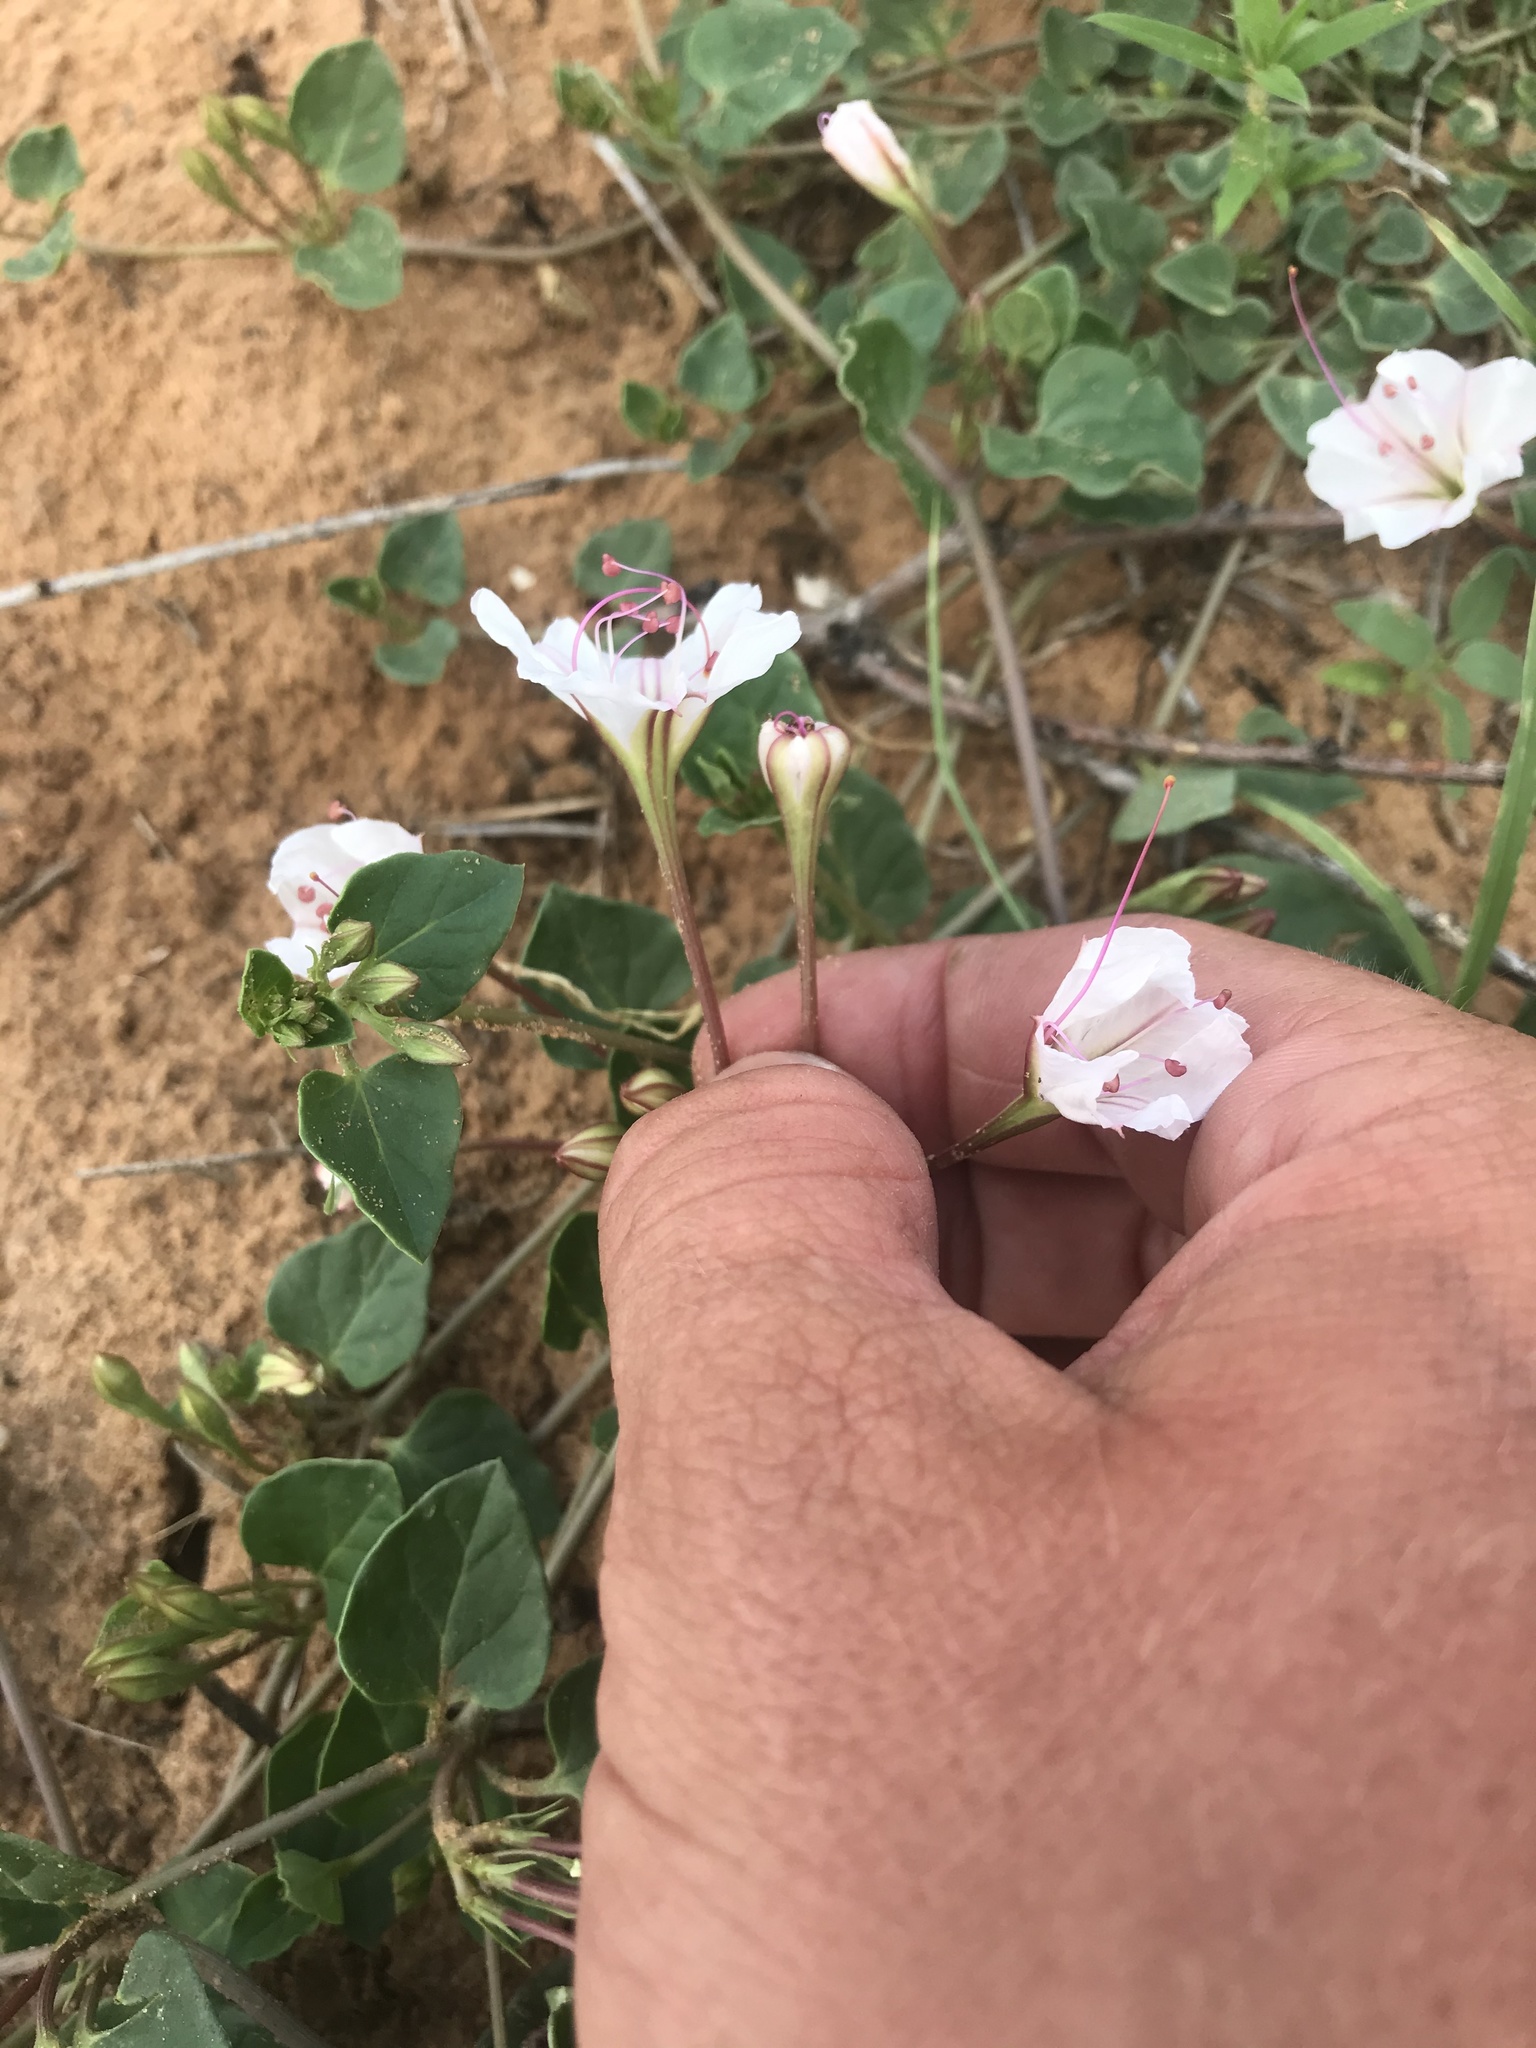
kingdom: Plantae
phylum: Tracheophyta
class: Magnoliopsida
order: Caryophyllales
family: Nyctaginaceae
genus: Acleisanthes
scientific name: Acleisanthes obtusa
